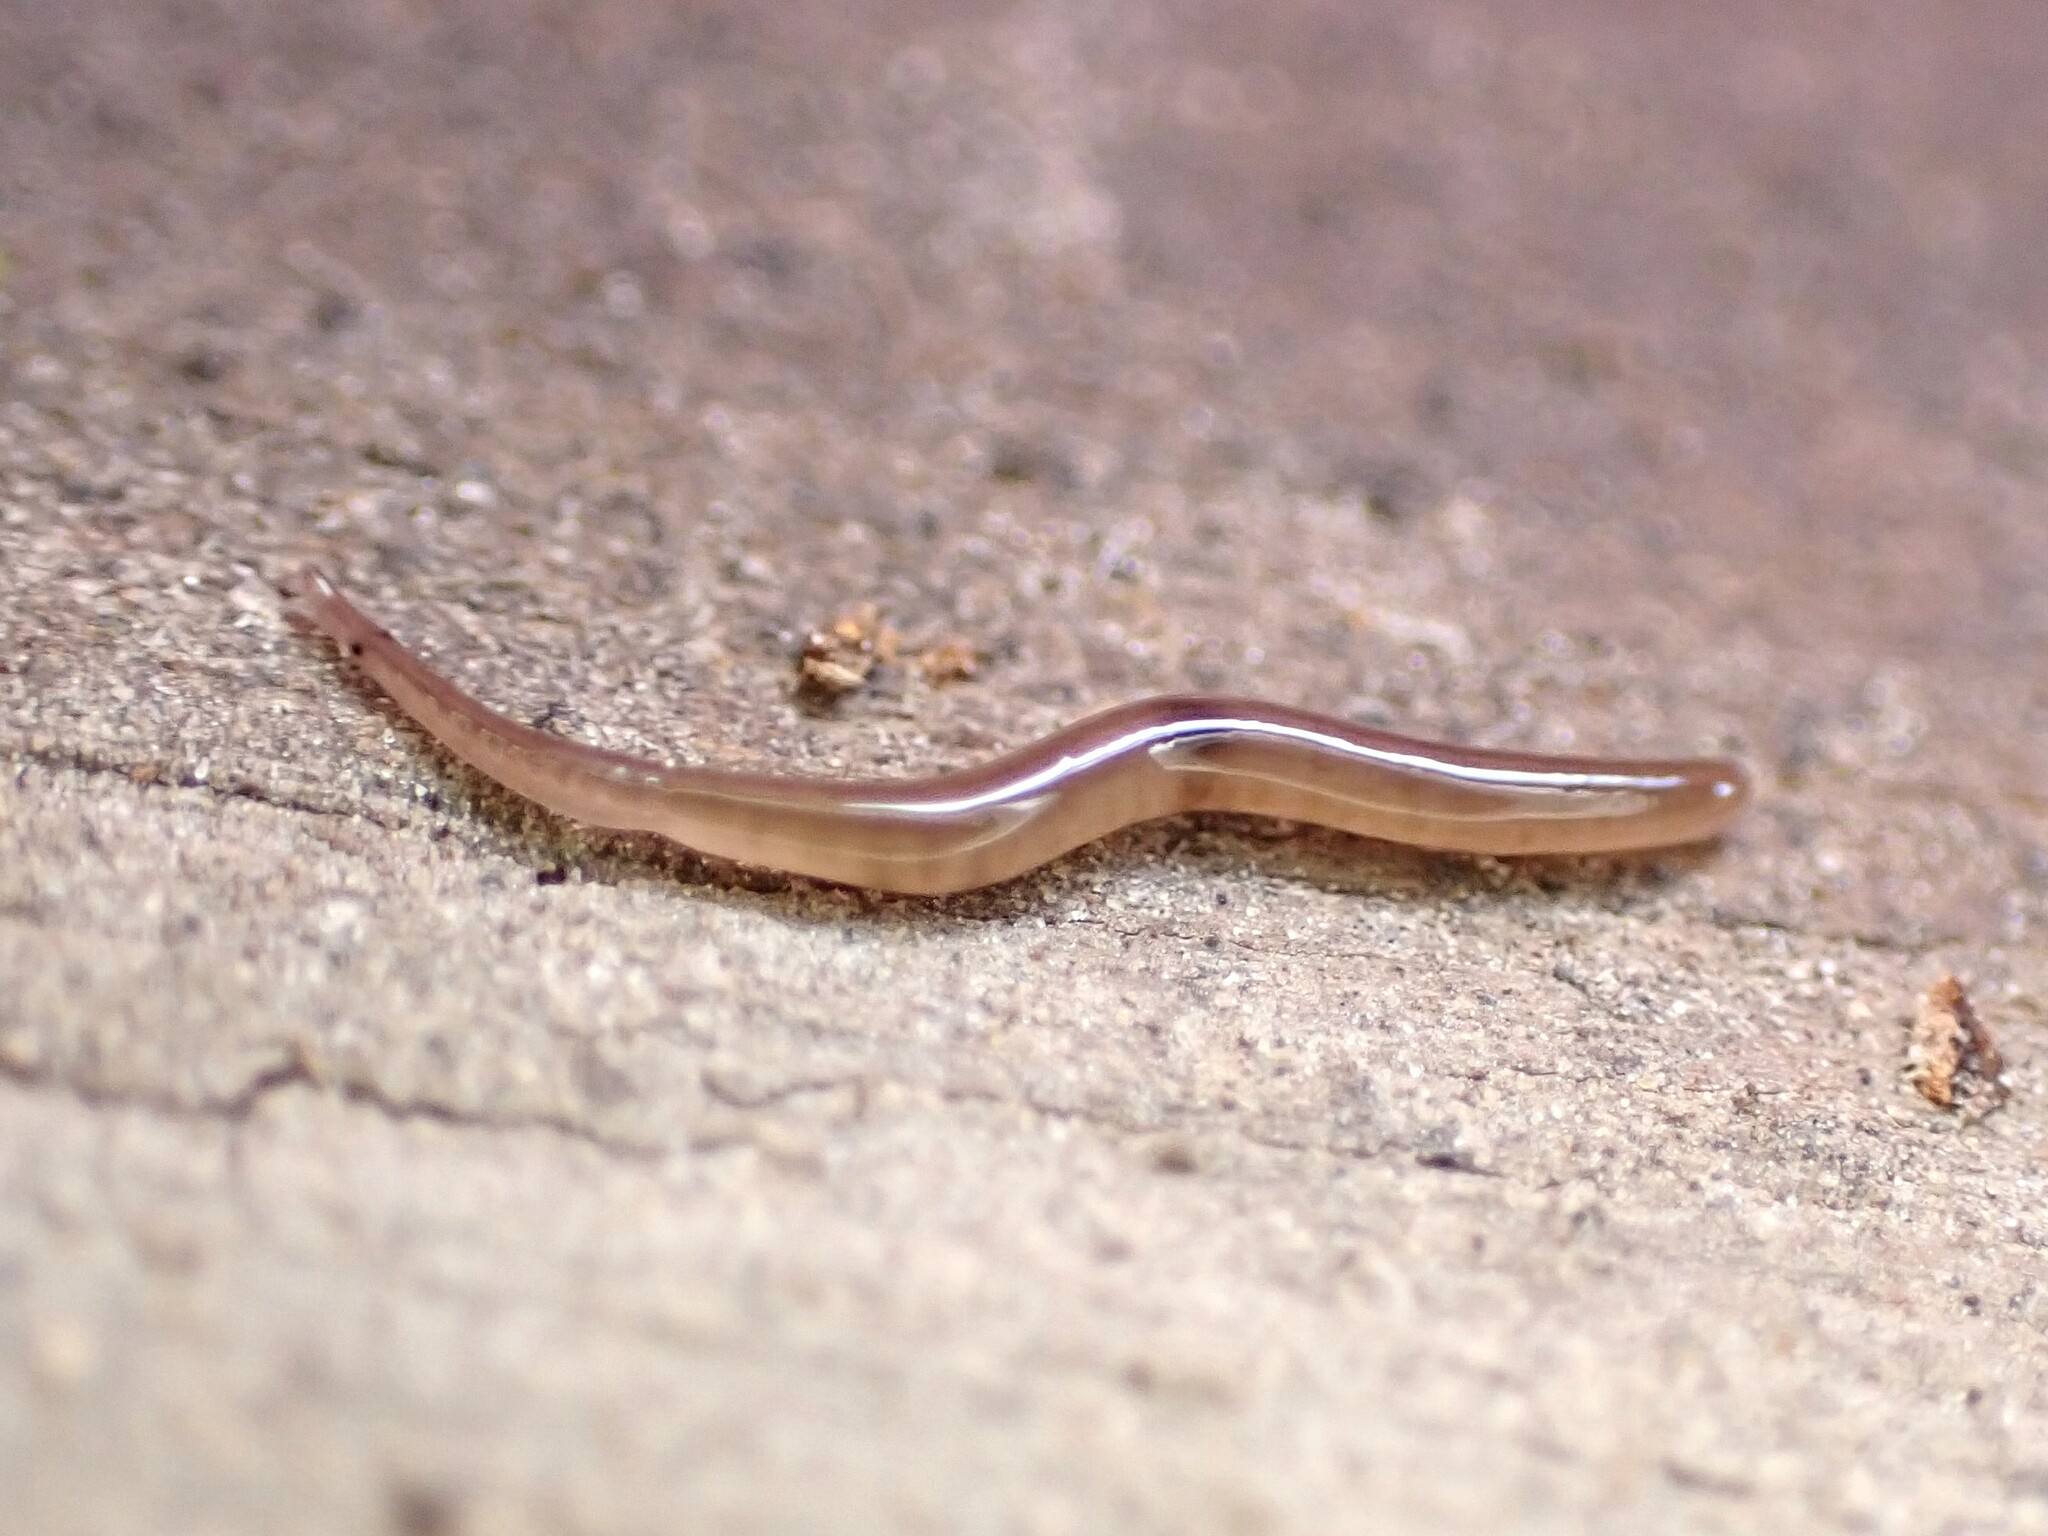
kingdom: Animalia
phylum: Platyhelminthes
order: Tricladida
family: Geoplanidae
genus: Rhynchodemus
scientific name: Rhynchodemus sylvaticus
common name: A flatworm
